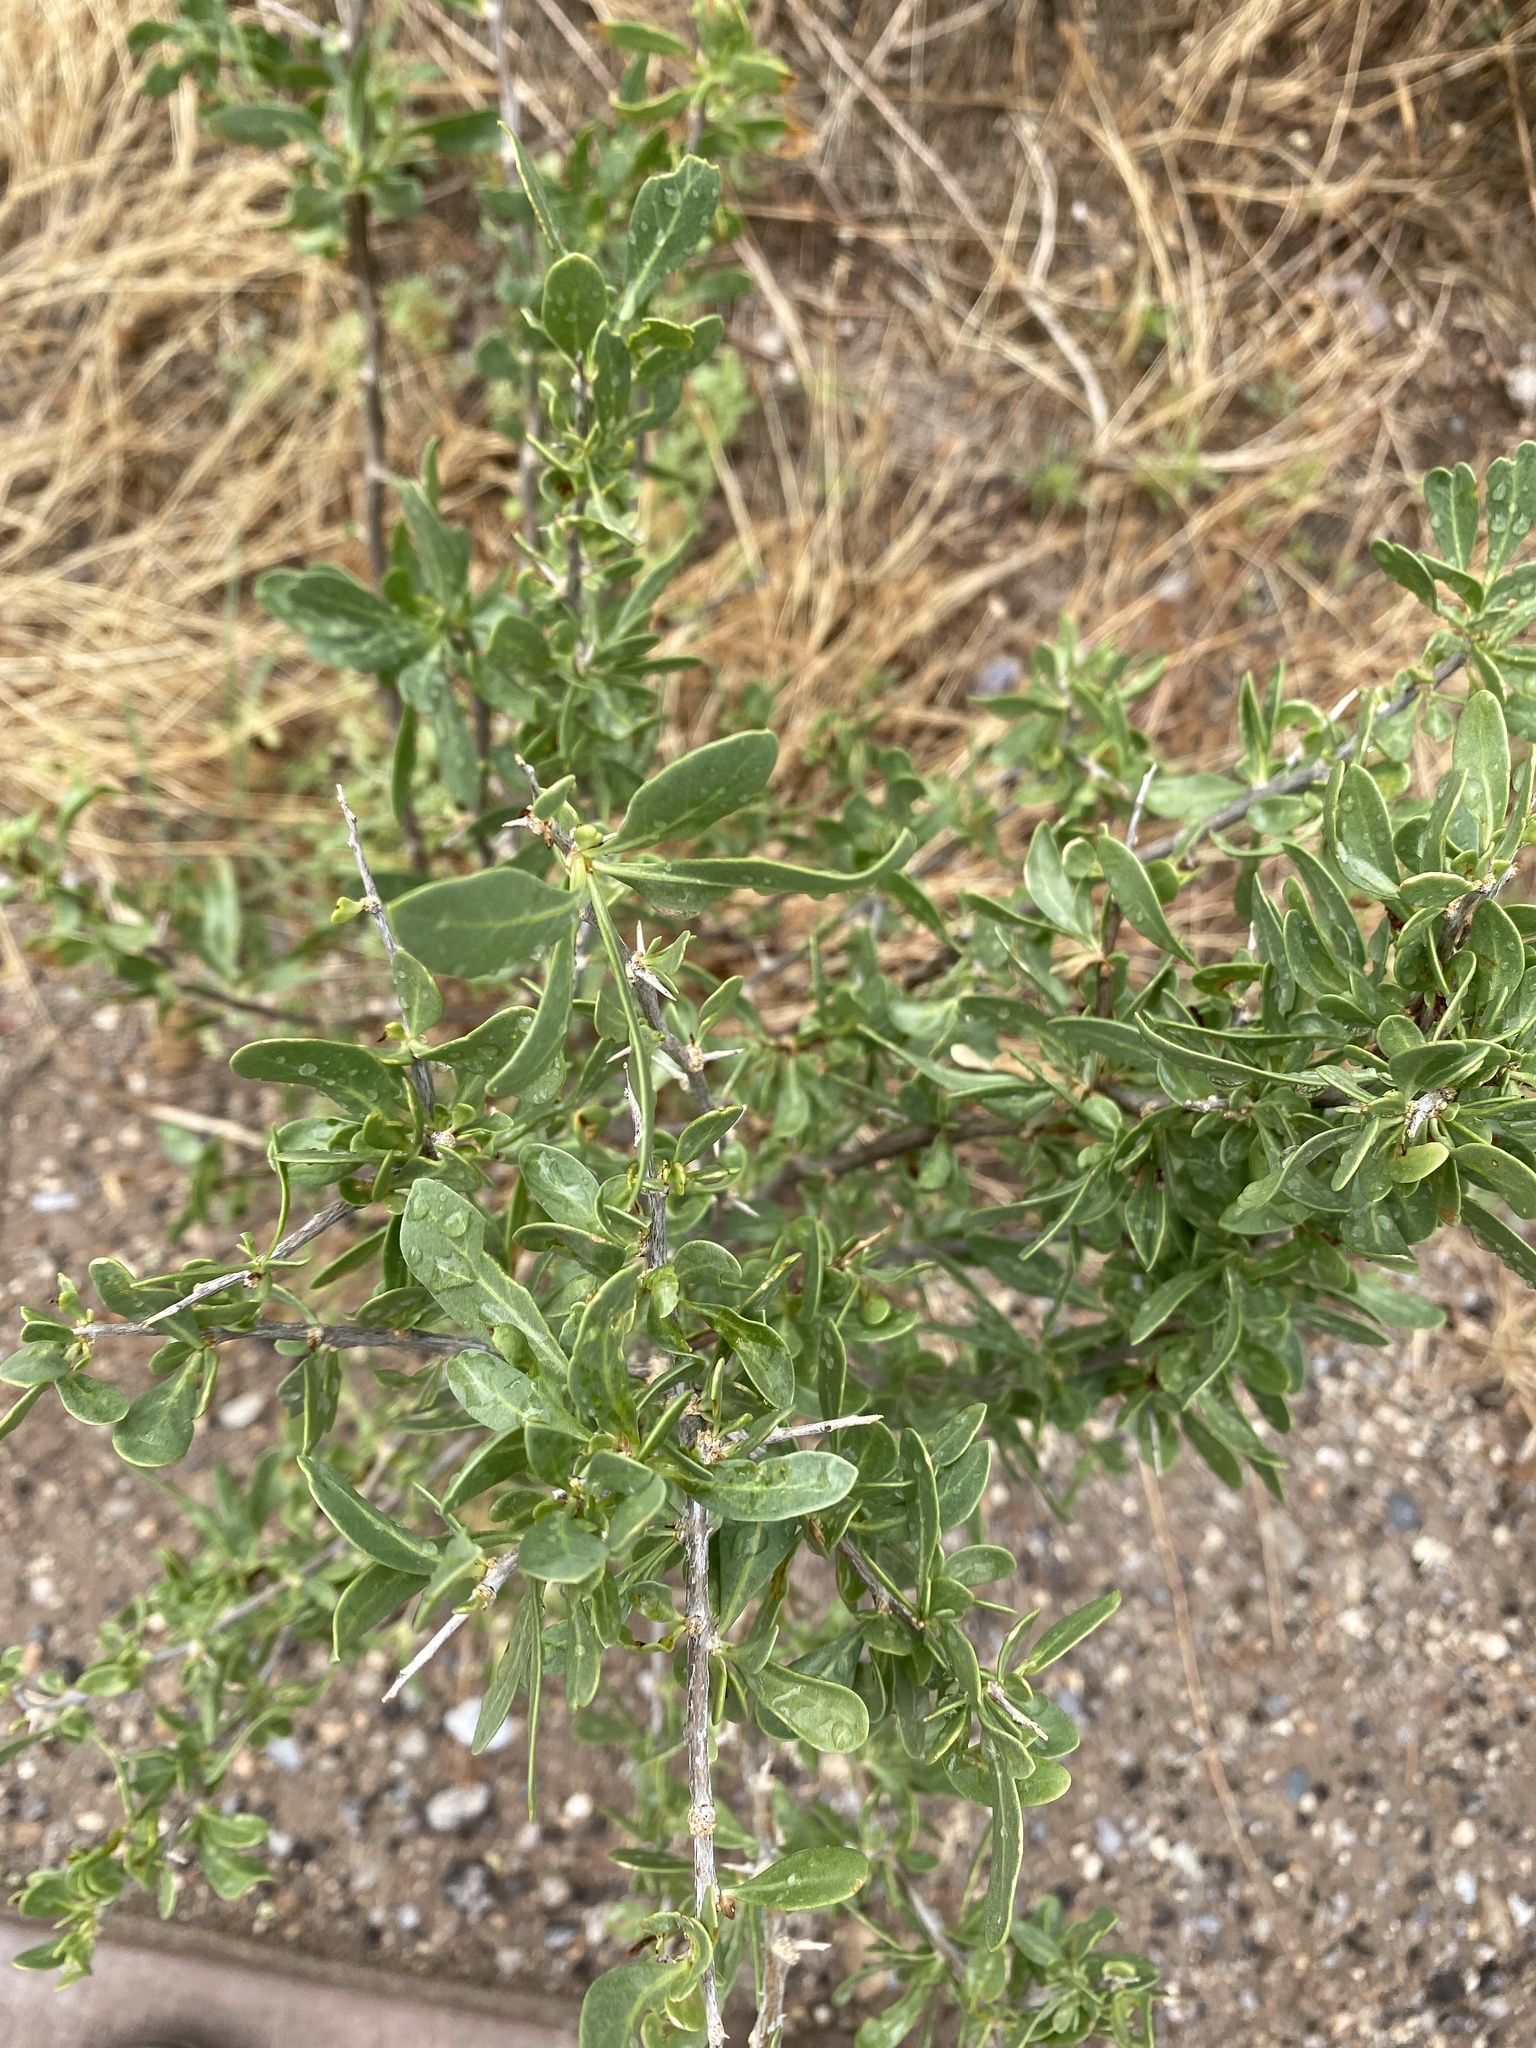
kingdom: Plantae
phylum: Tracheophyta
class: Magnoliopsida
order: Solanales
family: Solanaceae
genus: Lycium
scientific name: Lycium pallidum
